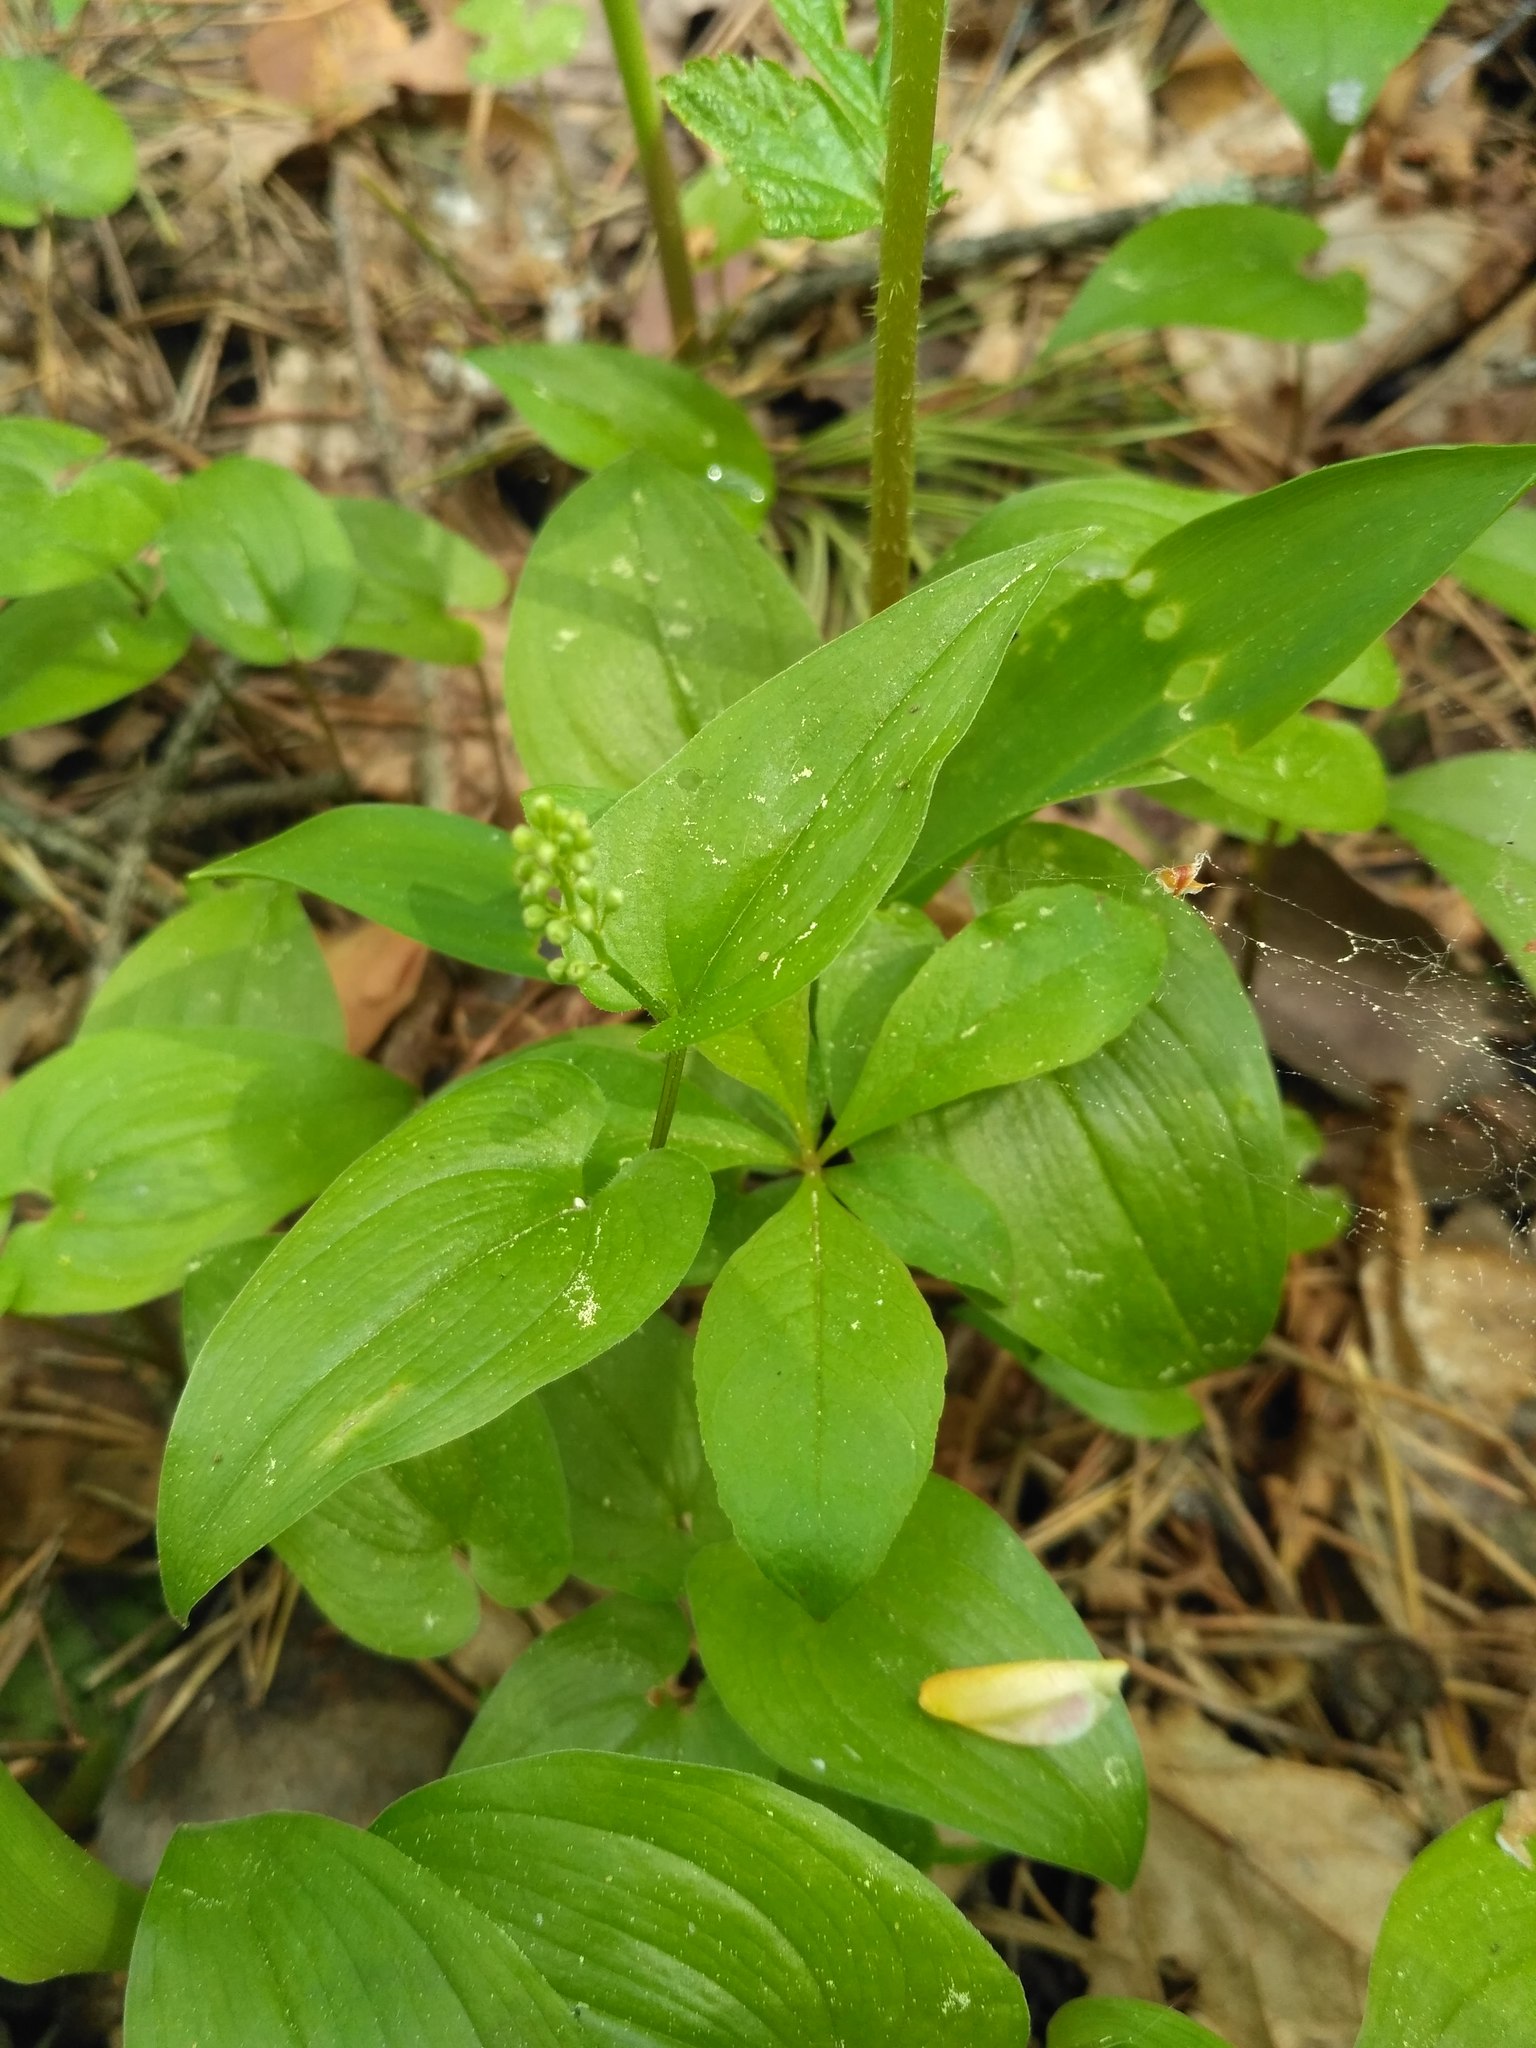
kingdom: Plantae
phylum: Tracheophyta
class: Liliopsida
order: Asparagales
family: Asparagaceae
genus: Maianthemum
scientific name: Maianthemum bifolium
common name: May lily
